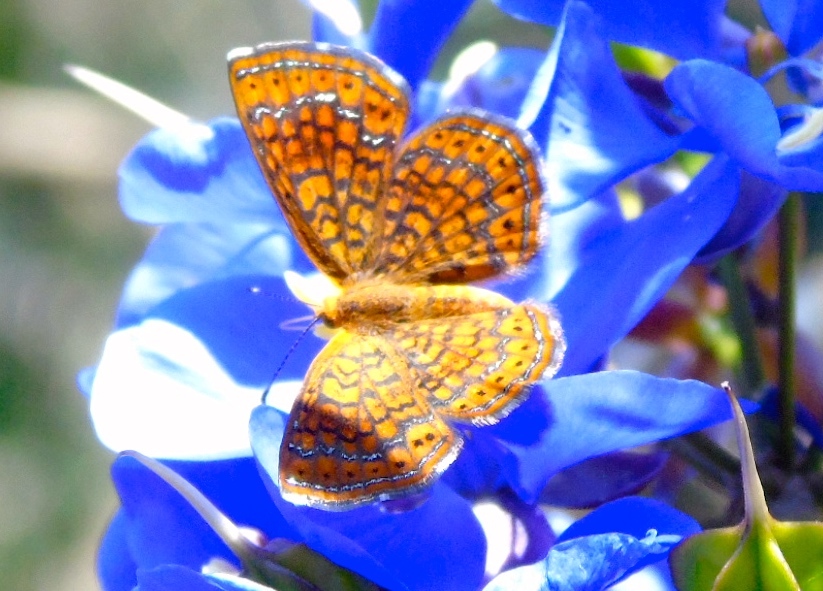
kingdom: Animalia
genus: Calephelis
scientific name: Calephelis
